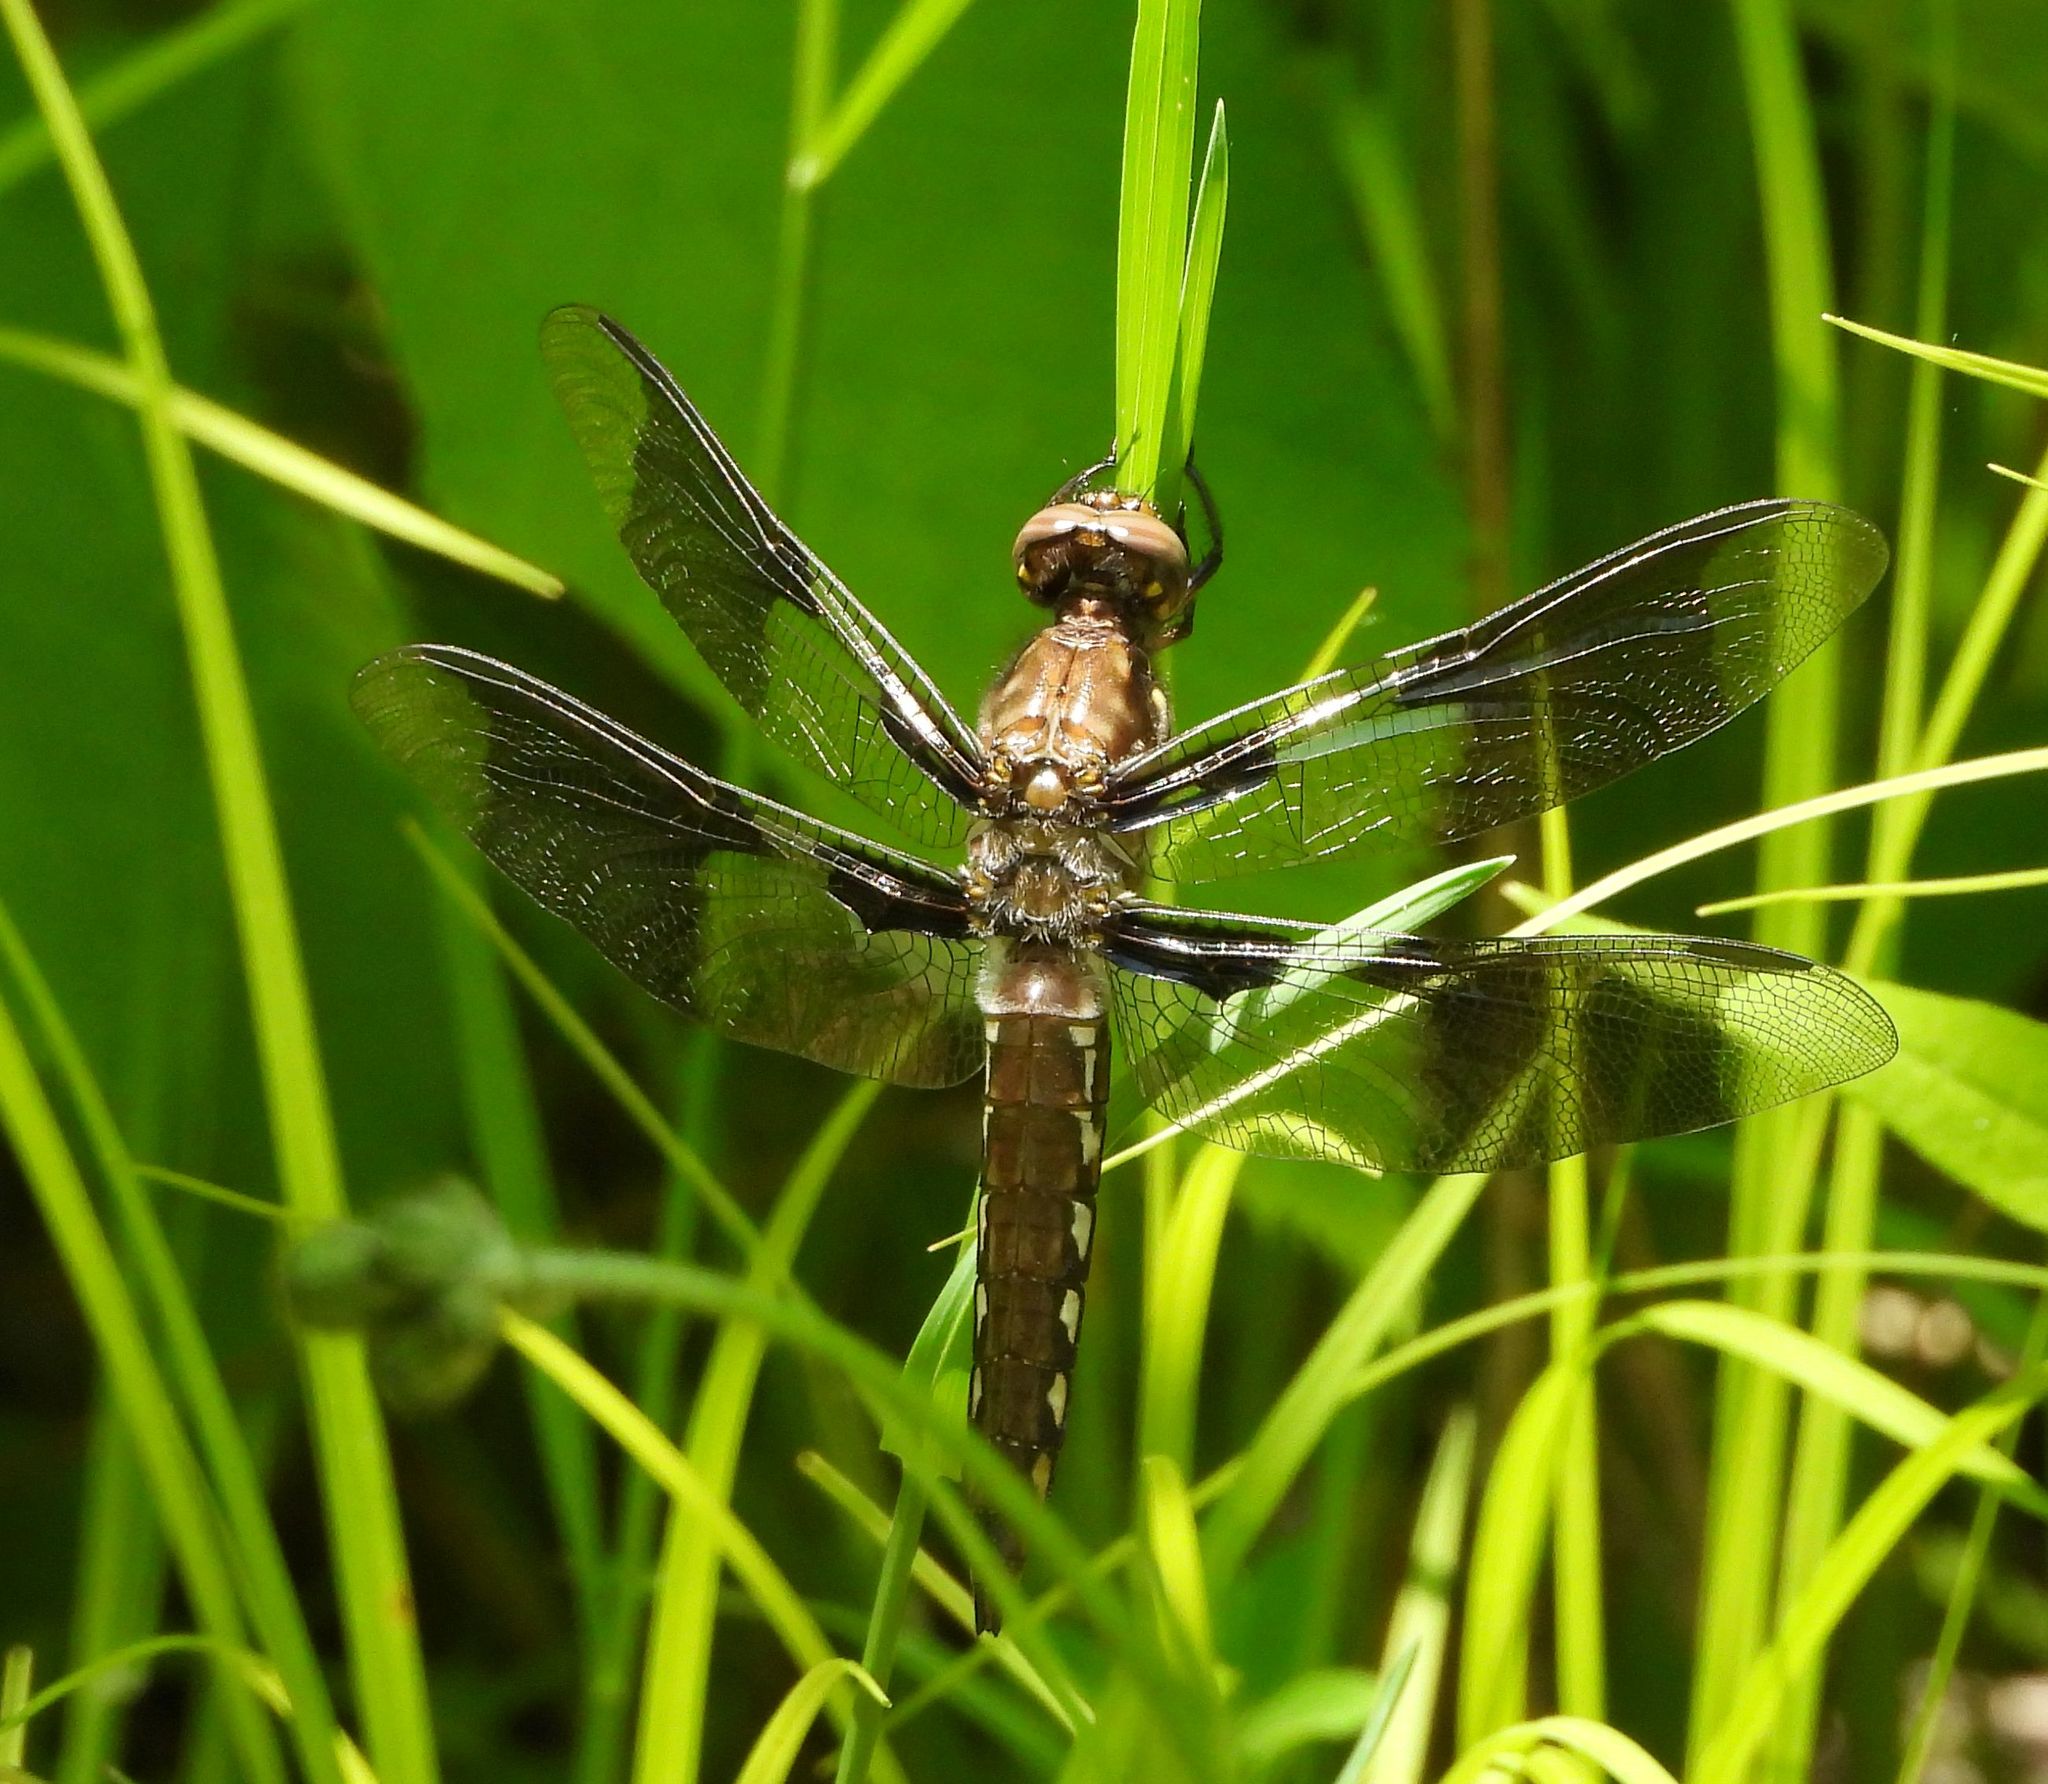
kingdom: Animalia
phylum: Arthropoda
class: Insecta
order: Odonata
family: Libellulidae
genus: Plathemis
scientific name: Plathemis lydia
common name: Common whitetail
